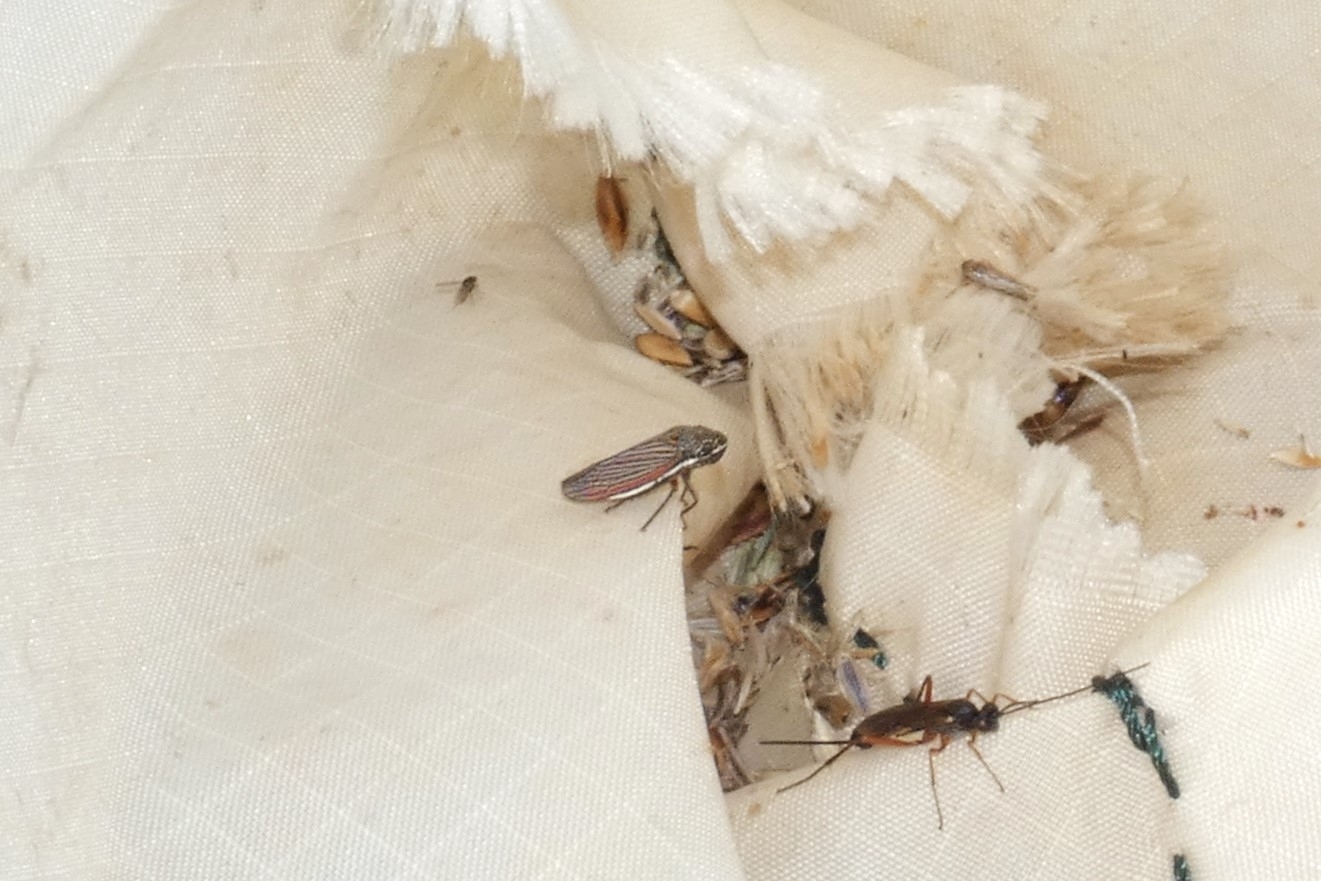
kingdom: Animalia
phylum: Arthropoda
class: Insecta
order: Hemiptera
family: Cicadellidae
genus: Cuerna
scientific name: Cuerna costalis
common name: Lateral-lined sharpshooter
